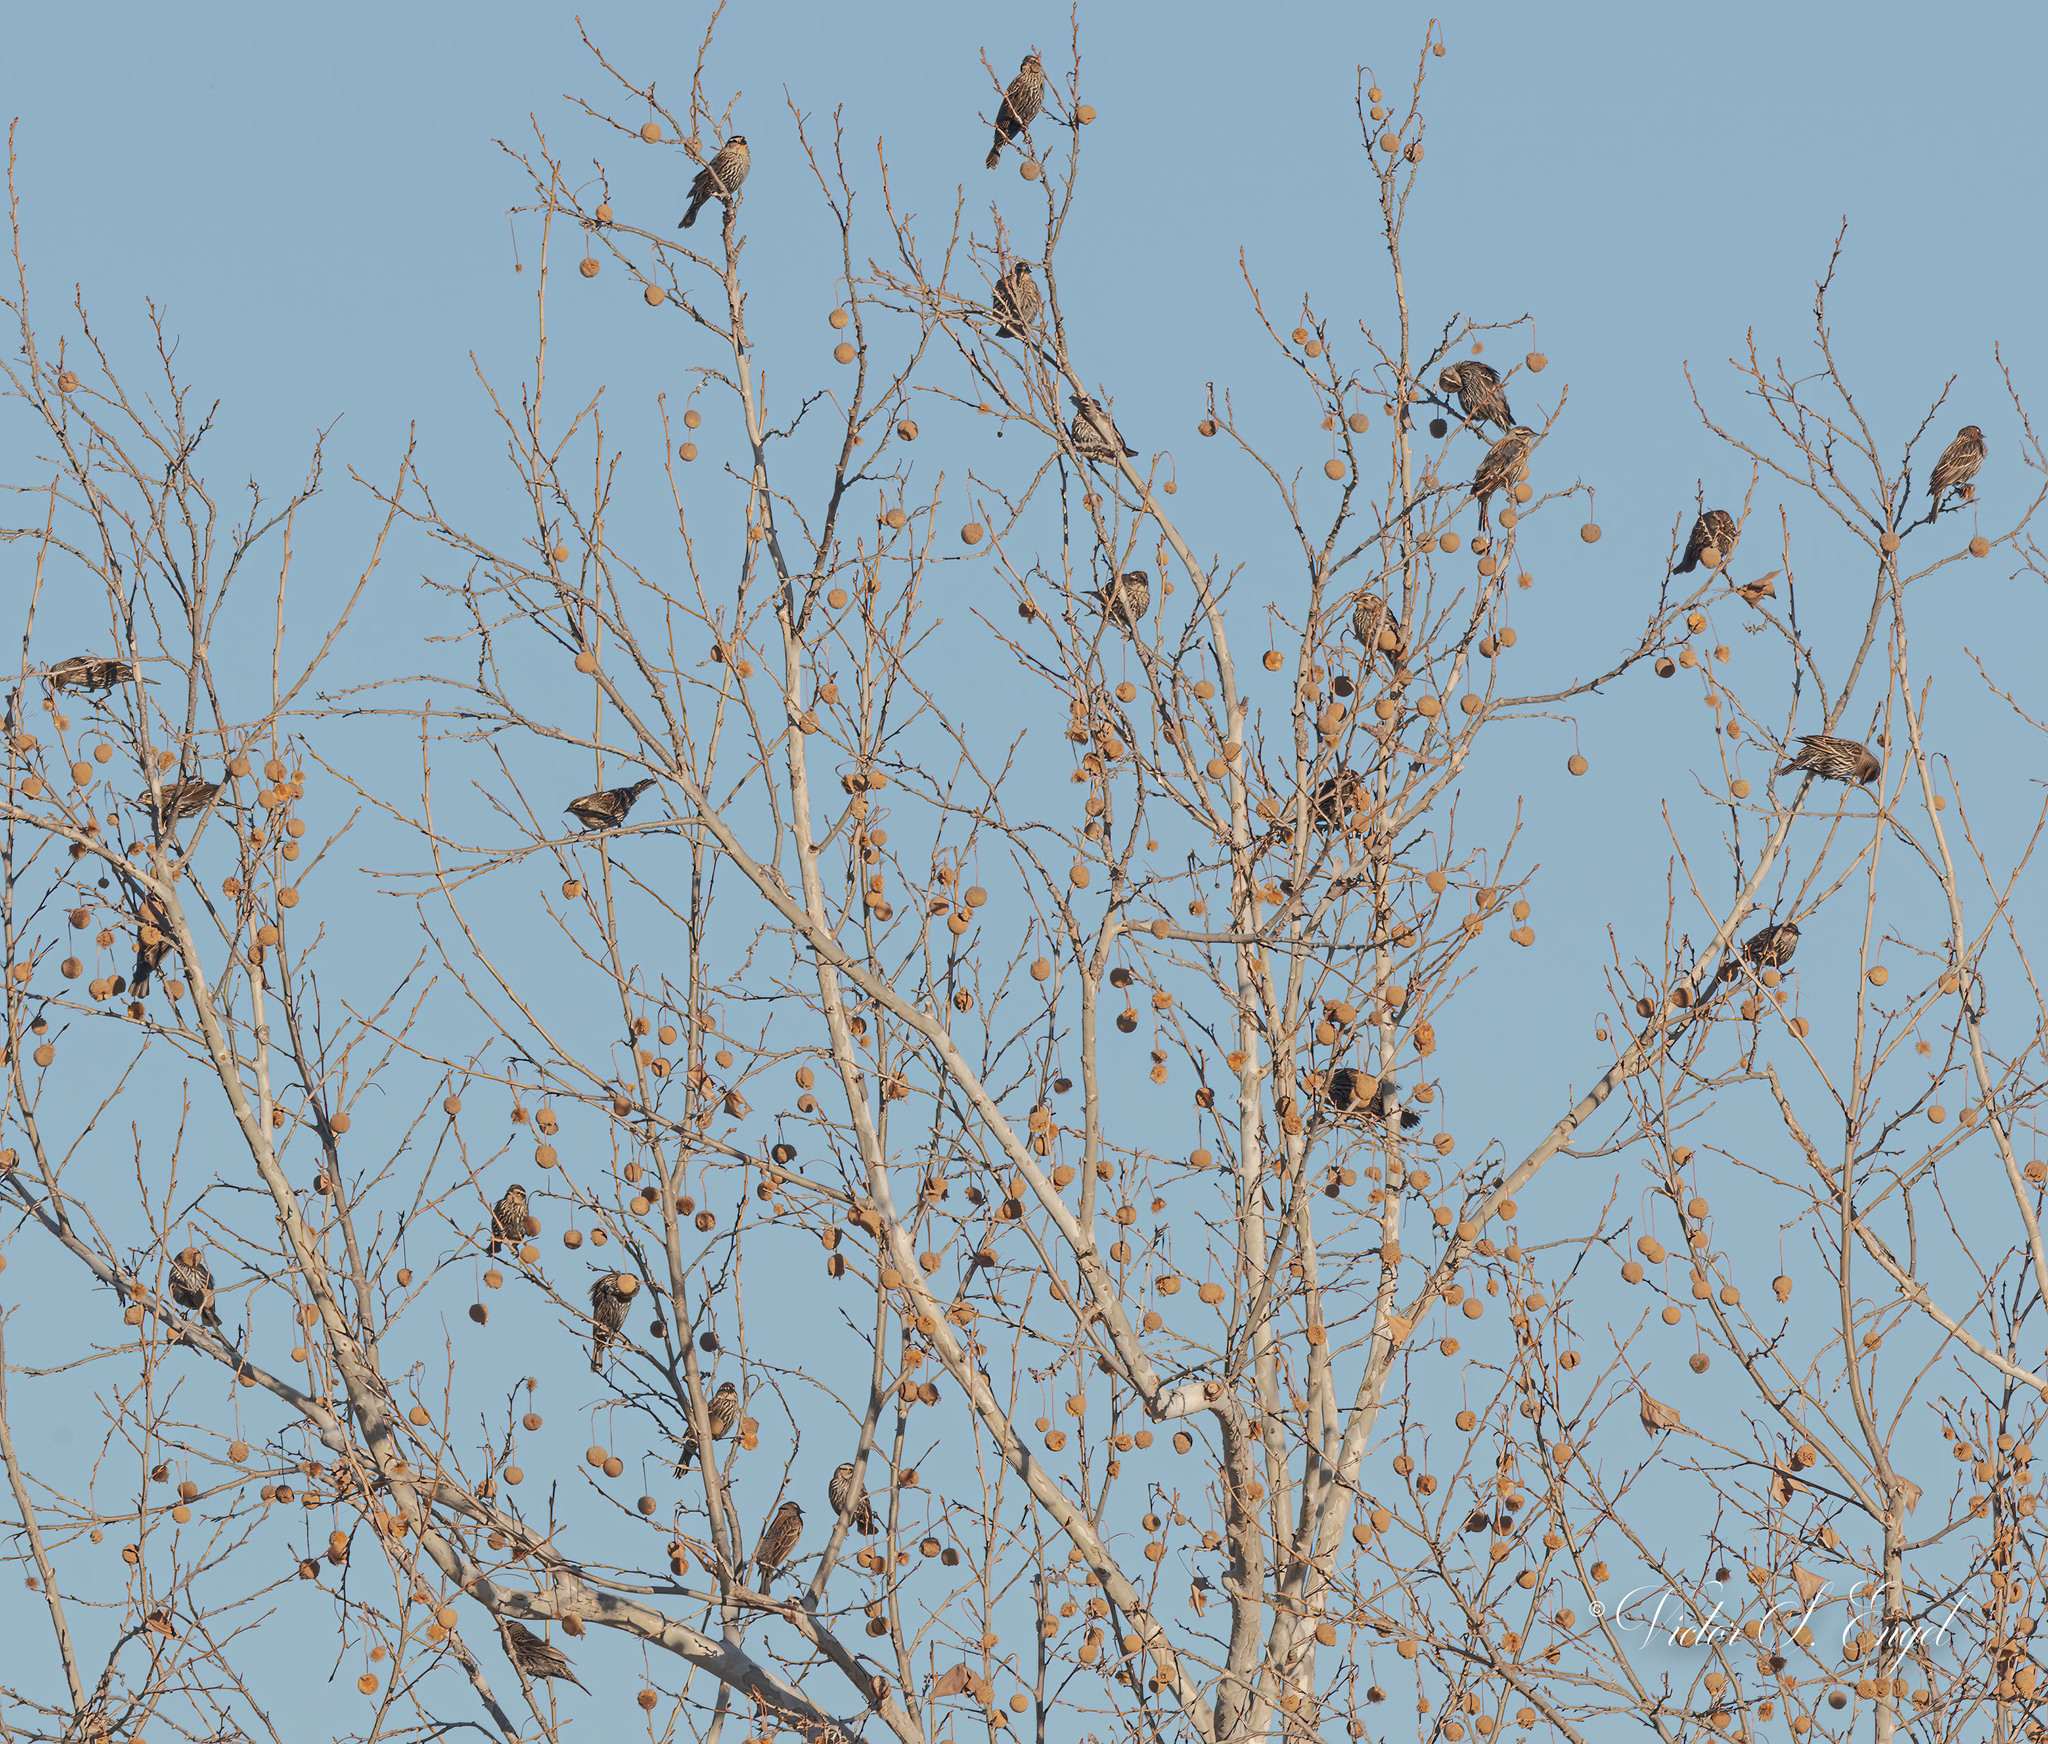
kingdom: Animalia
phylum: Chordata
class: Aves
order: Passeriformes
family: Icteridae
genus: Agelaius
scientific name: Agelaius phoeniceus
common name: Red-winged blackbird
